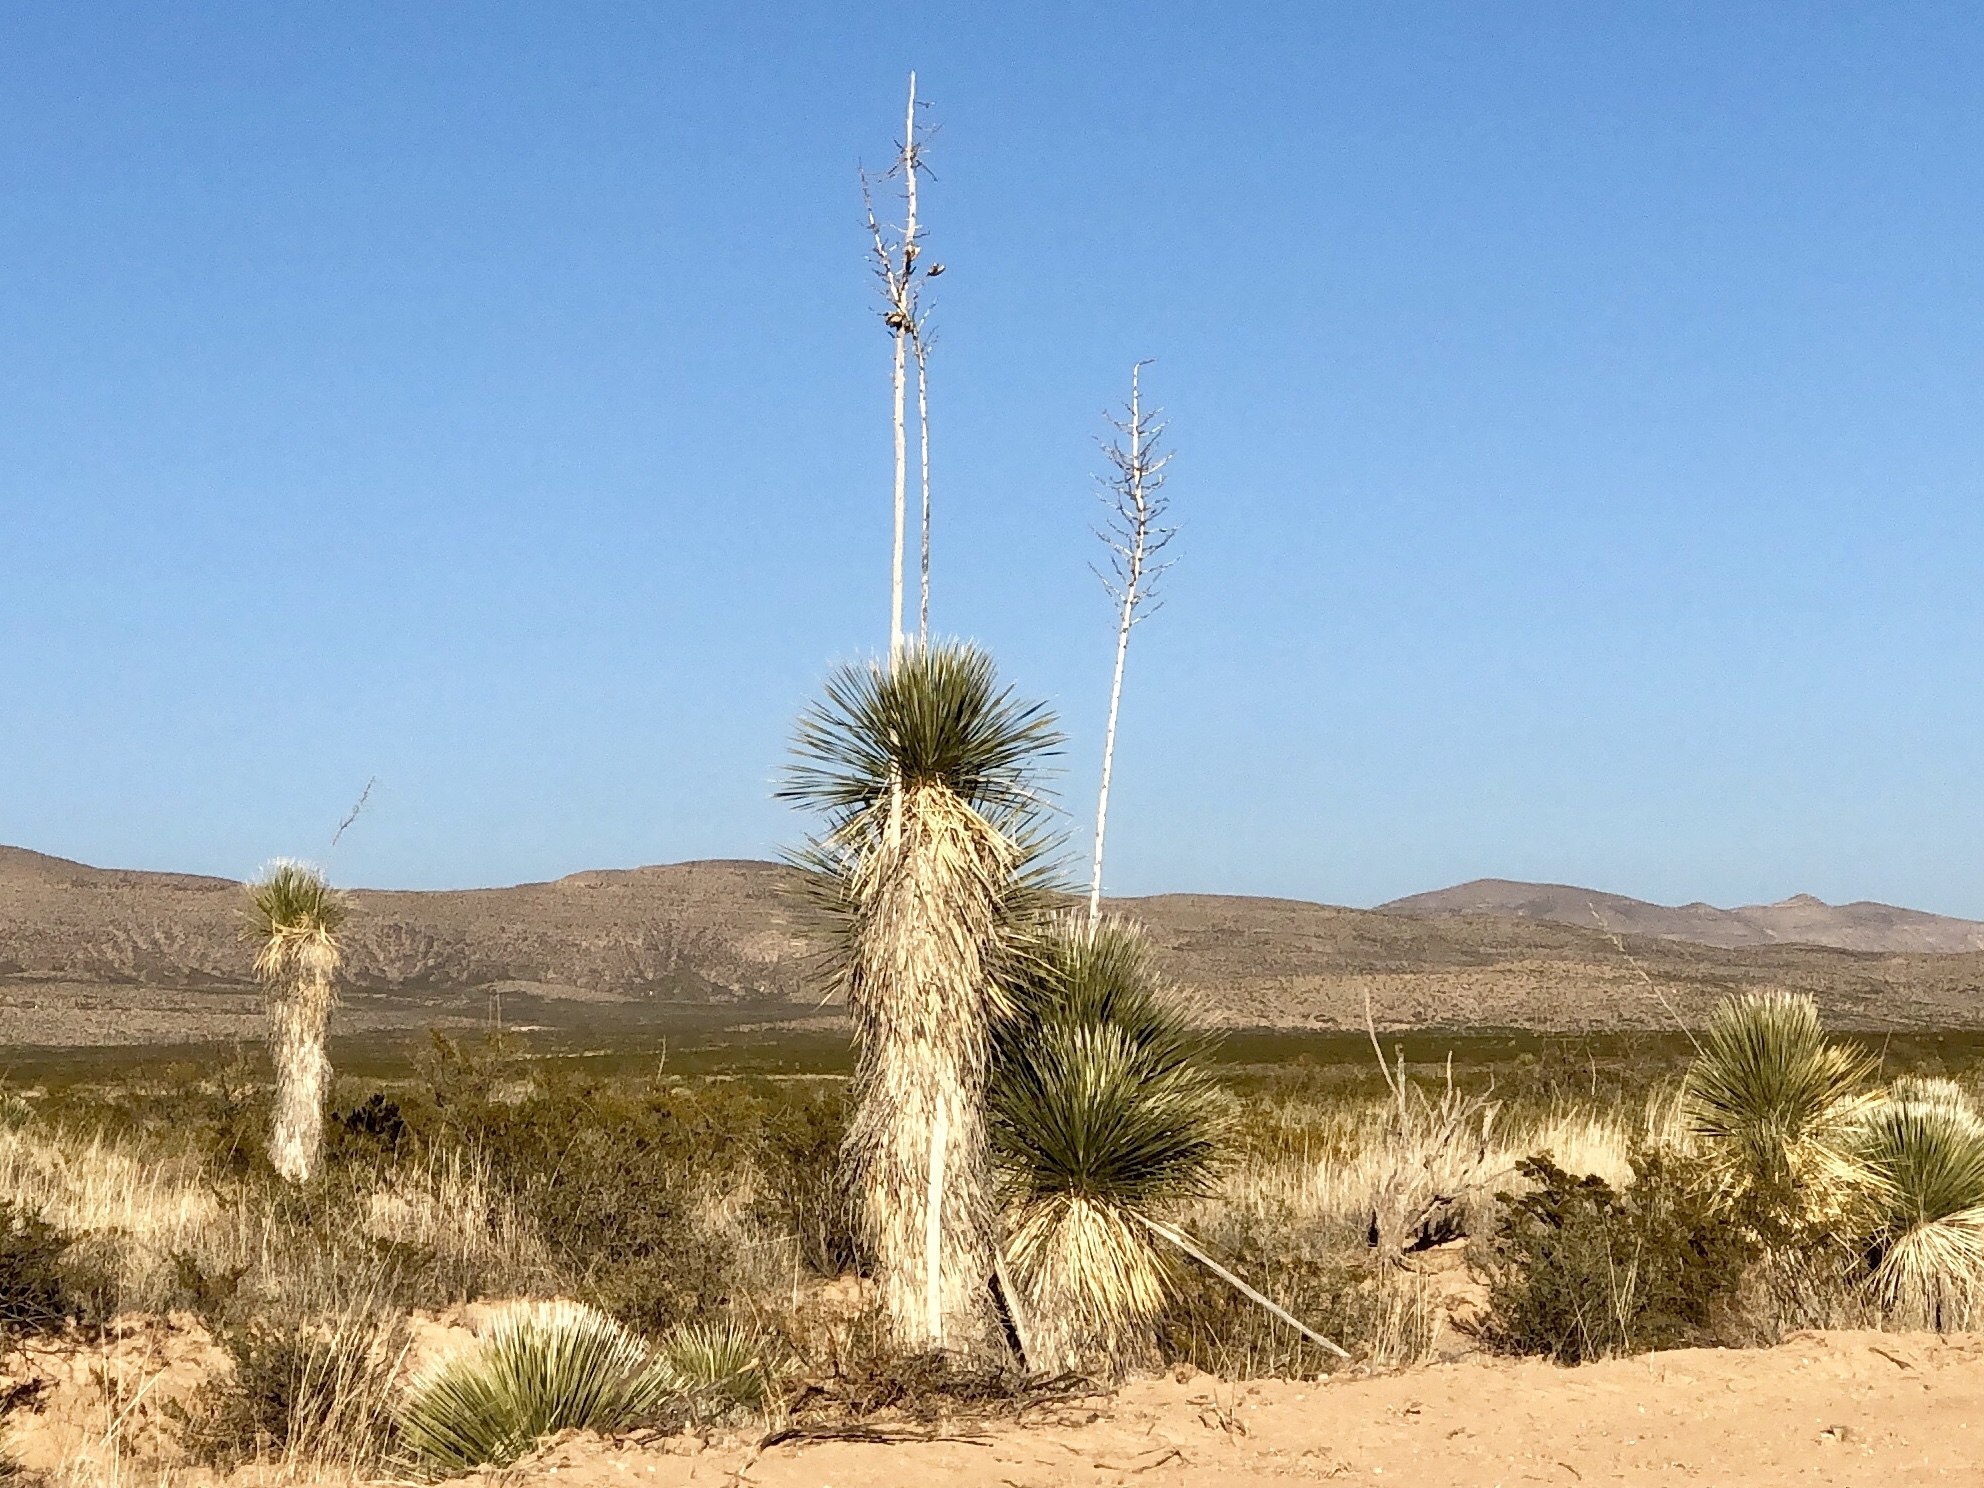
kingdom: Plantae
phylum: Tracheophyta
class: Liliopsida
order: Asparagales
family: Asparagaceae
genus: Yucca
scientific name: Yucca elata
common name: Palmella
